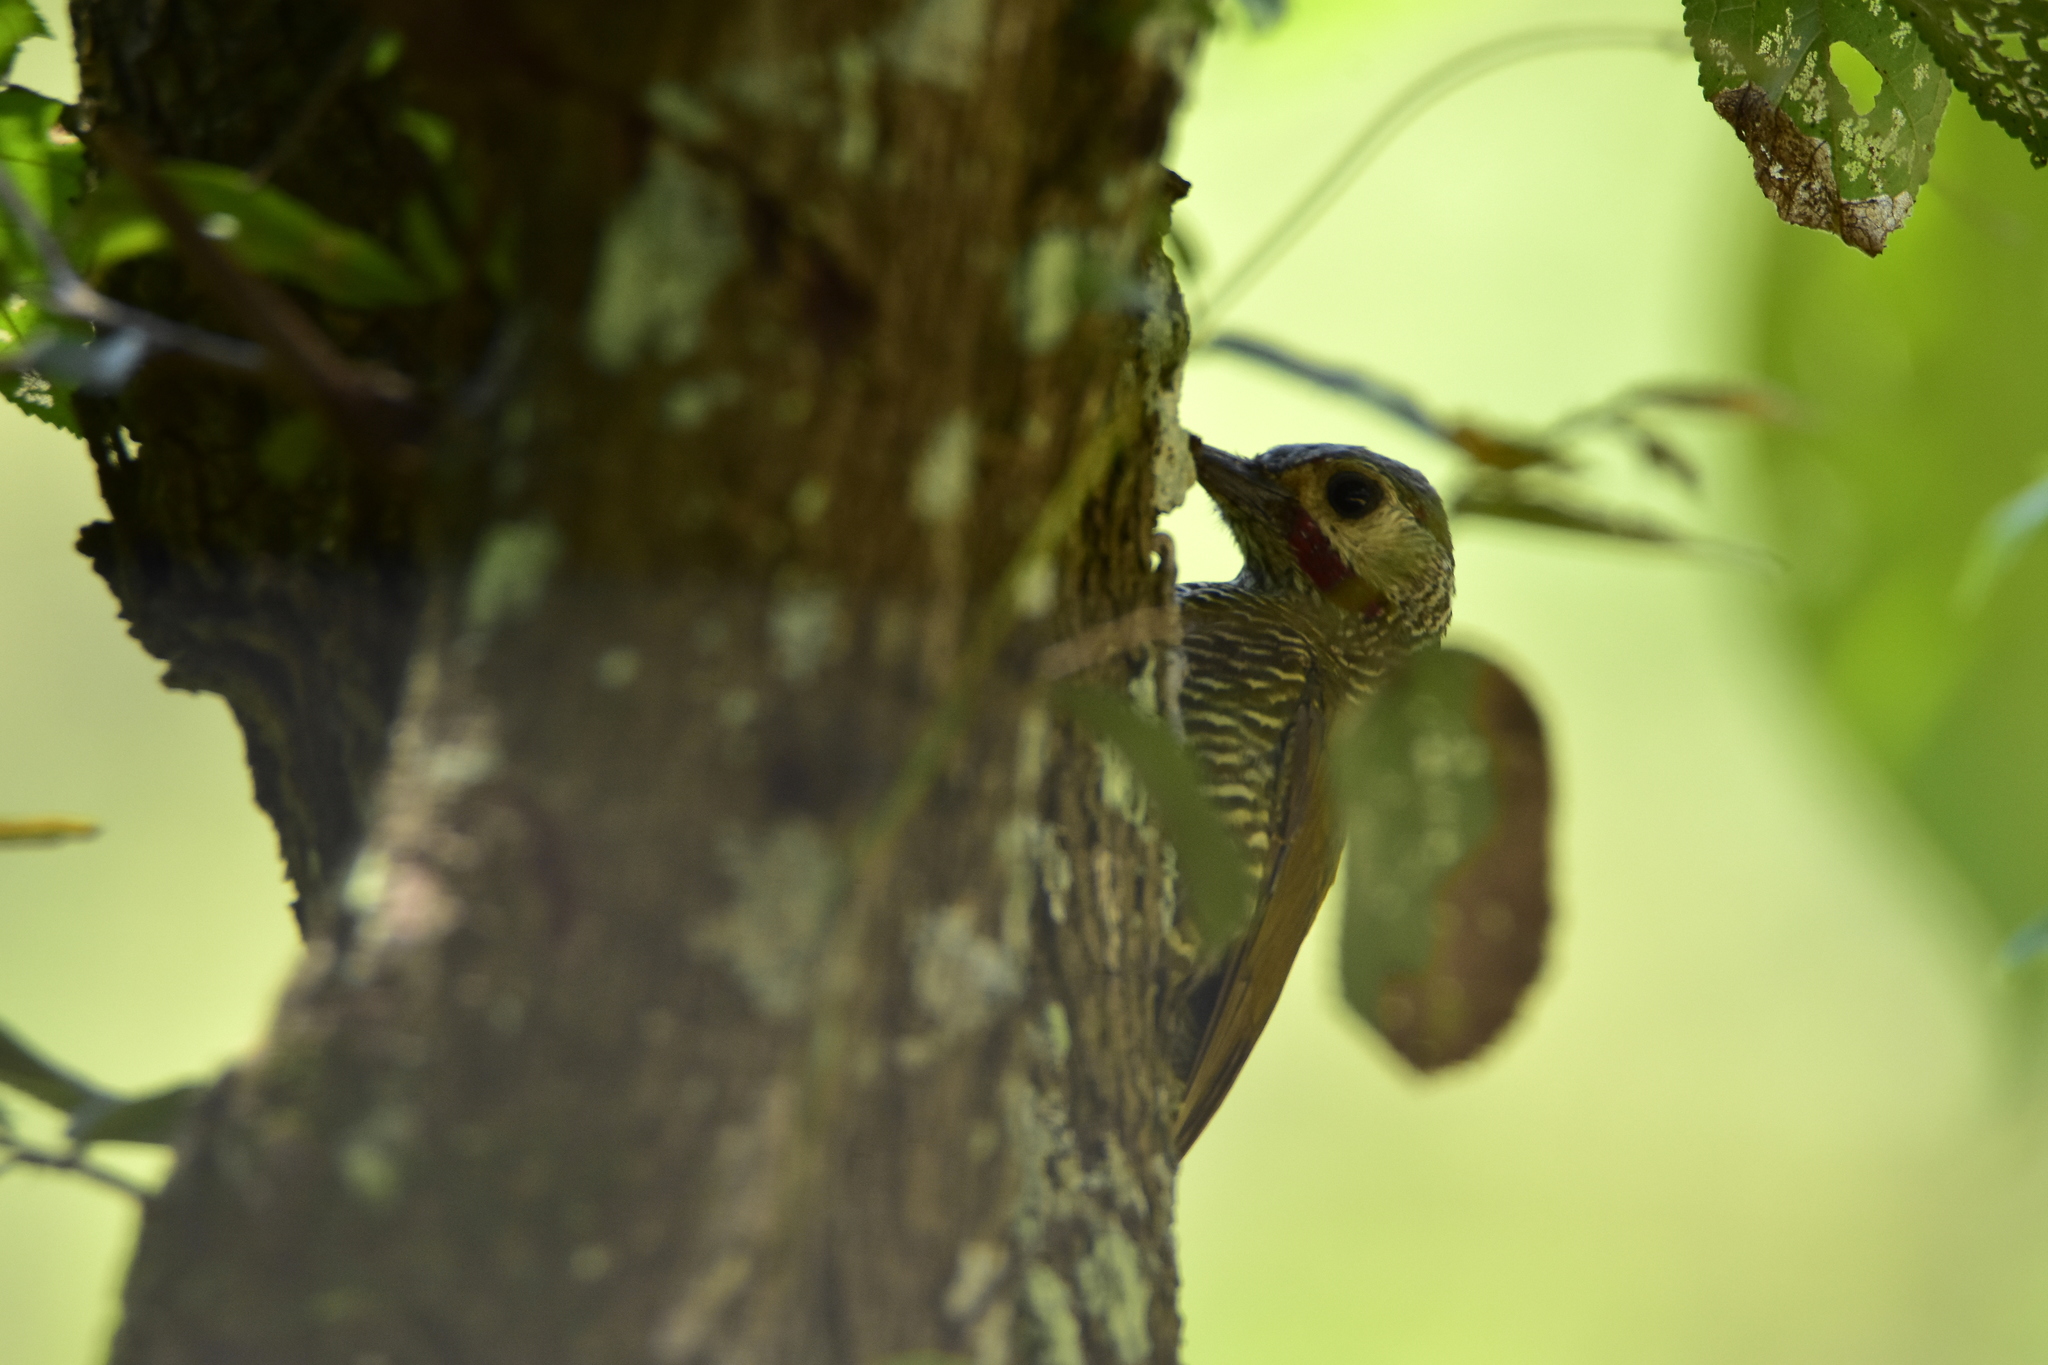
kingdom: Animalia
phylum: Chordata
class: Aves
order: Piciformes
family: Picidae
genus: Colaptes
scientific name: Colaptes auricularis
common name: Grey-crowned woodpecker
